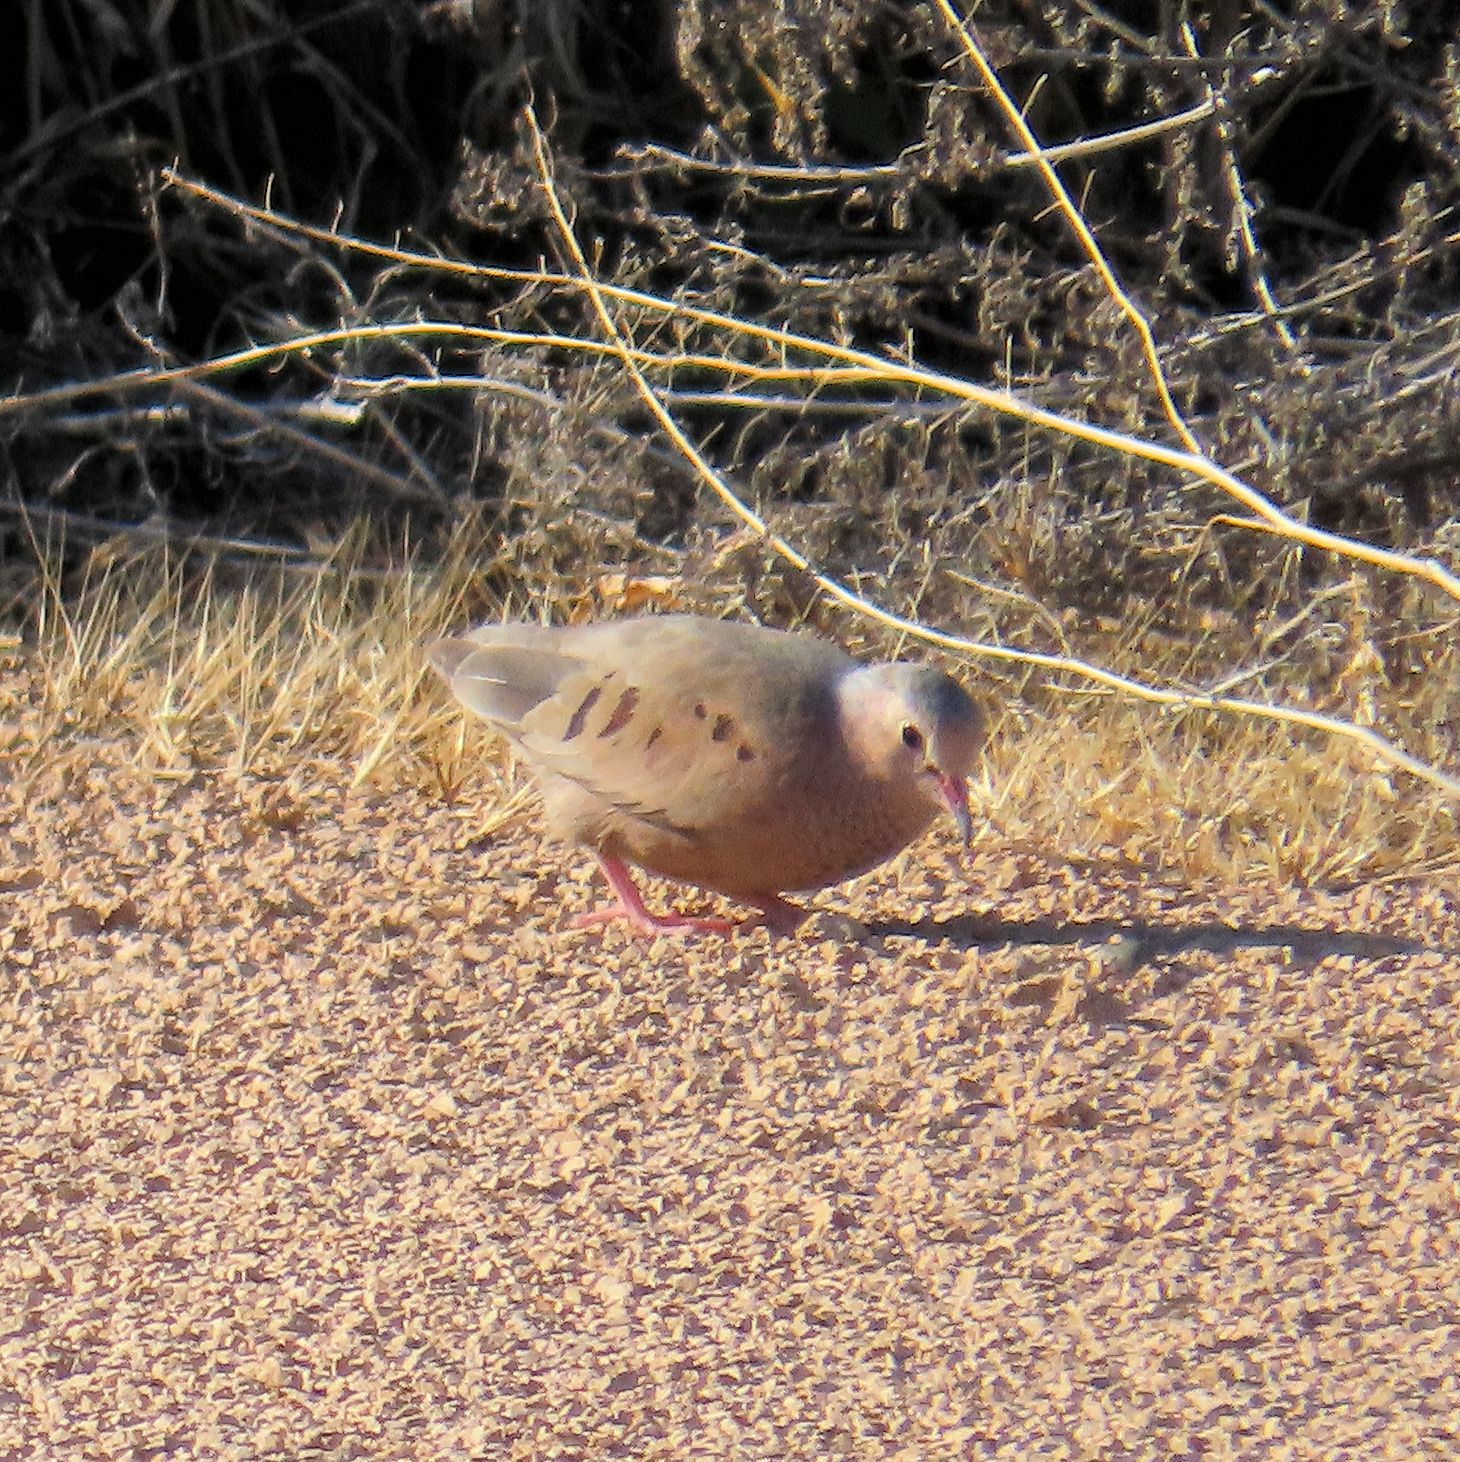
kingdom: Animalia
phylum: Chordata
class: Aves
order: Columbiformes
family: Columbidae
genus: Columbina
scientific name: Columbina passerina
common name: Common ground-dove
